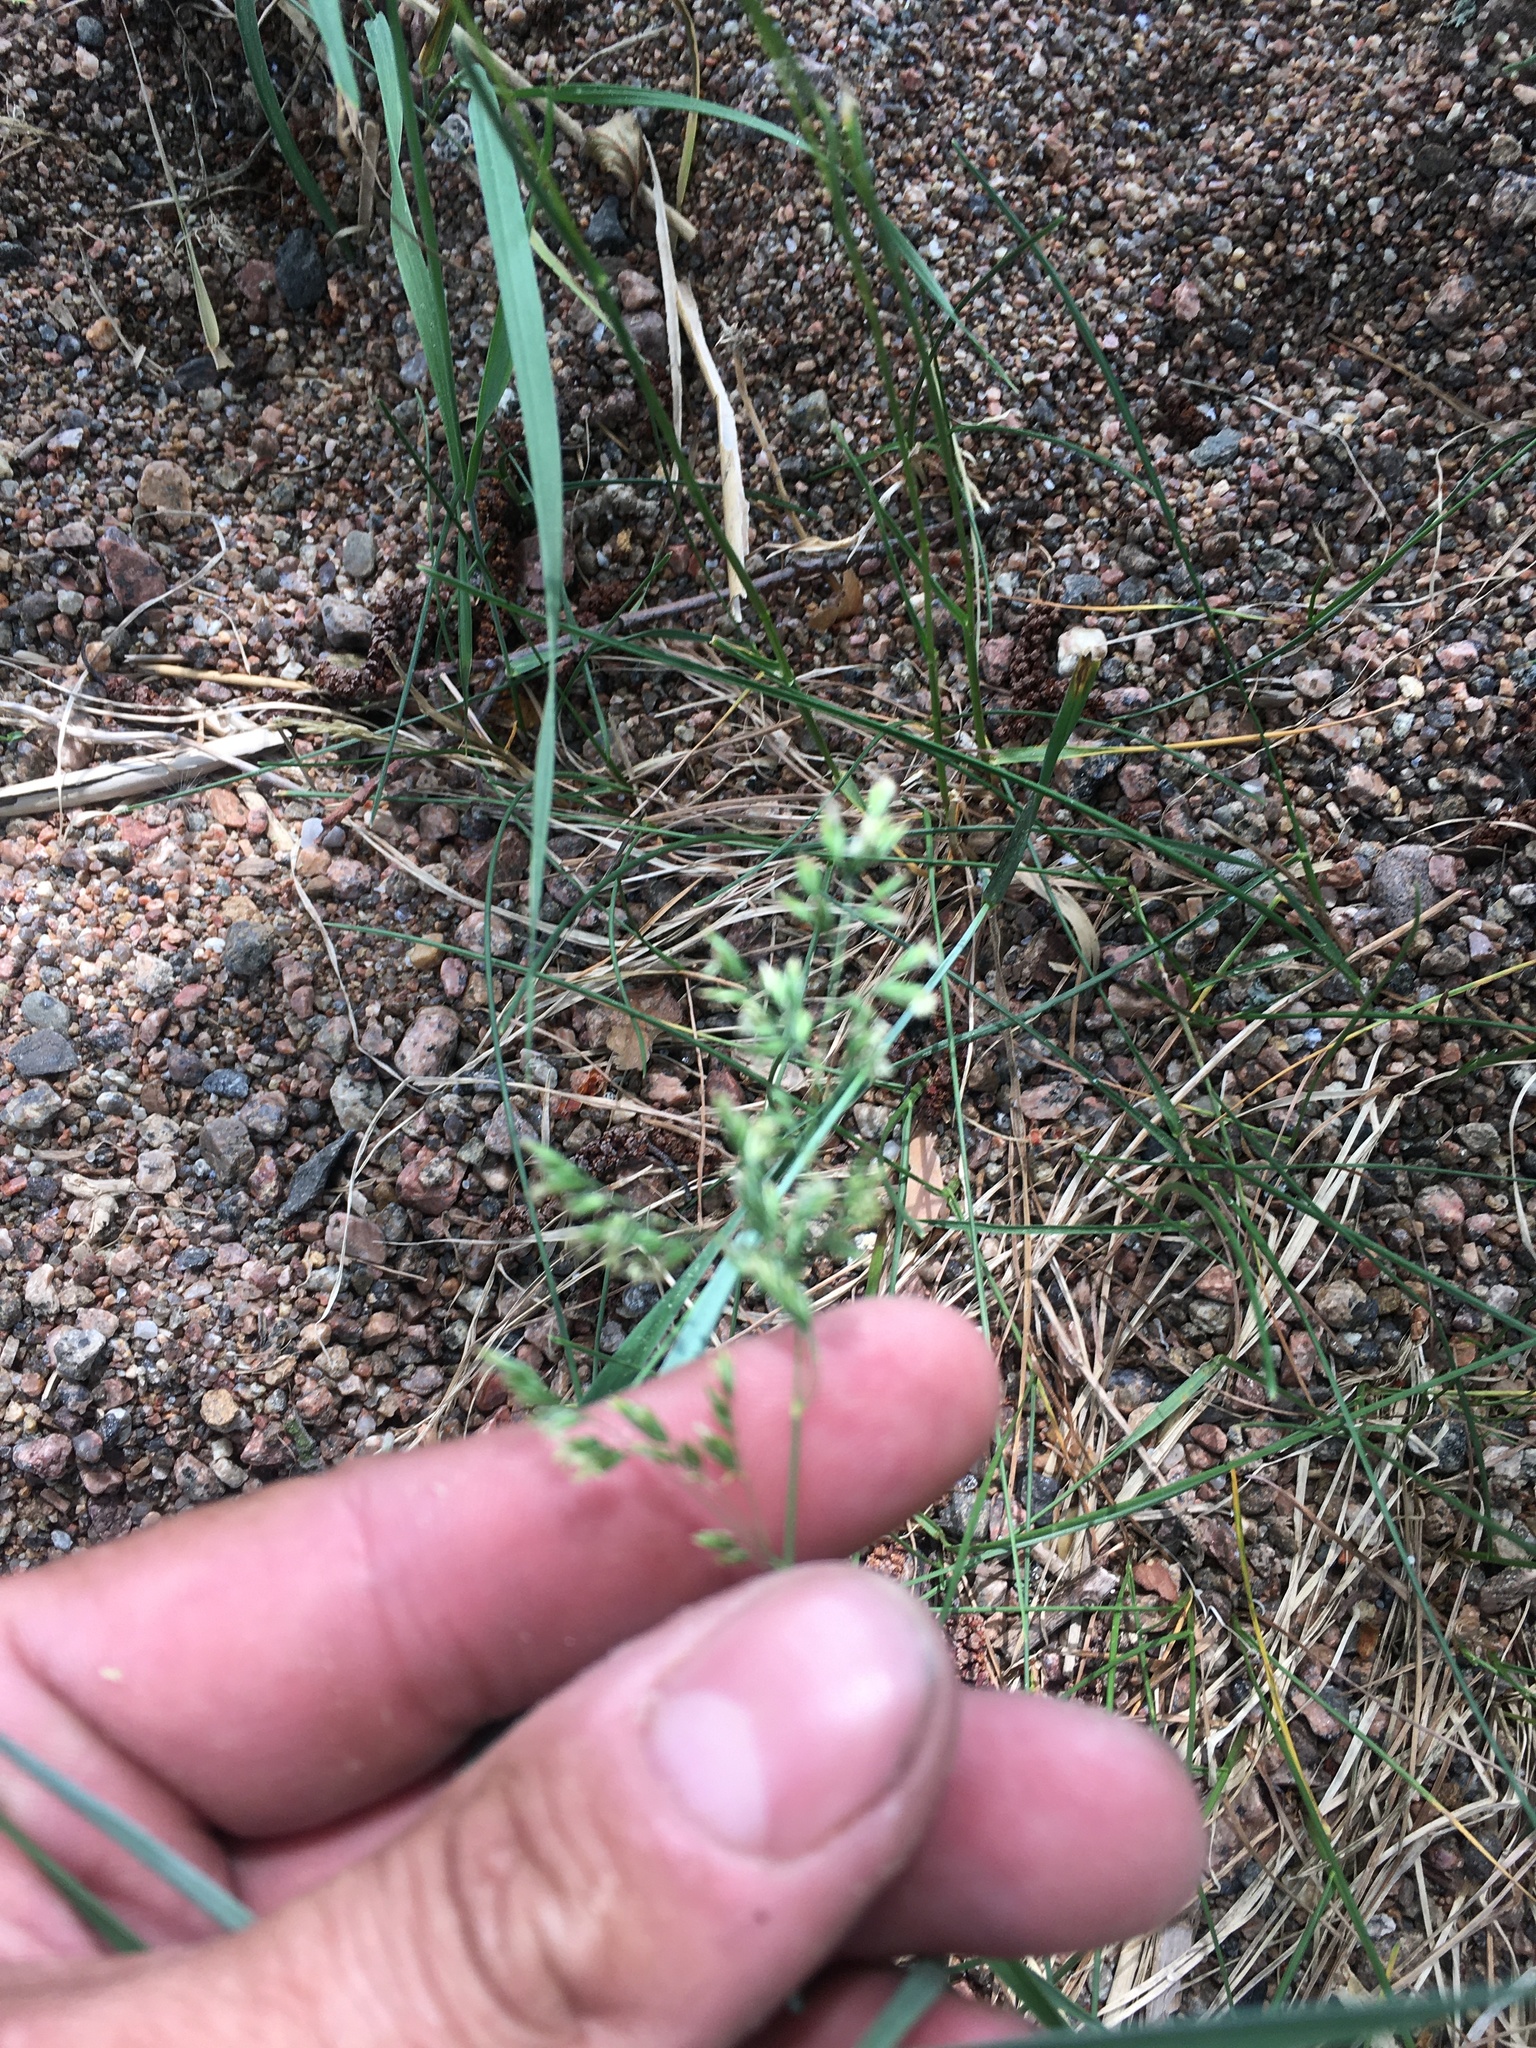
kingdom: Plantae
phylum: Tracheophyta
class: Liliopsida
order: Poales
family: Poaceae
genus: Poa
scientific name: Poa annua
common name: Annual bluegrass
